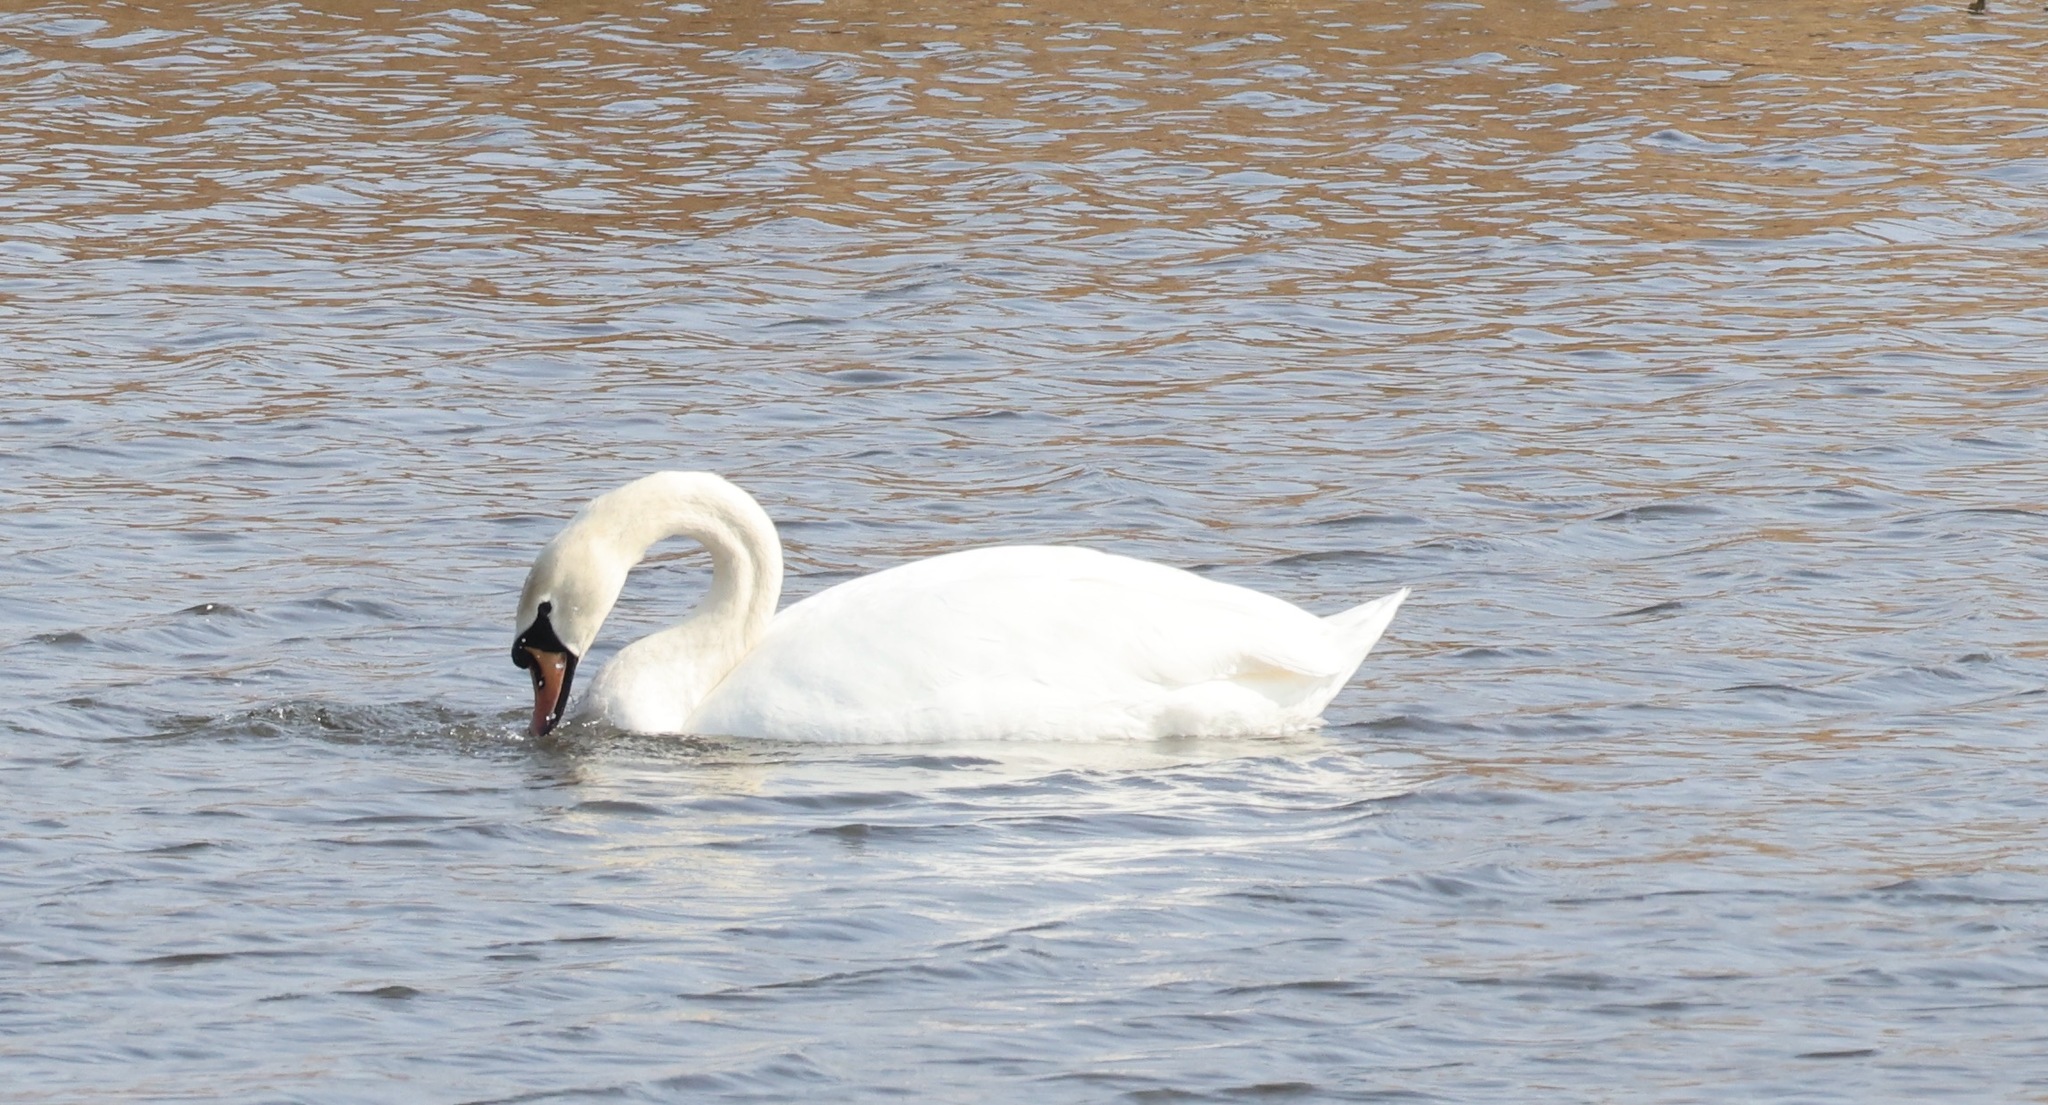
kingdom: Animalia
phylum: Chordata
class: Aves
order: Anseriformes
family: Anatidae
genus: Cygnus
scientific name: Cygnus olor
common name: Mute swan
